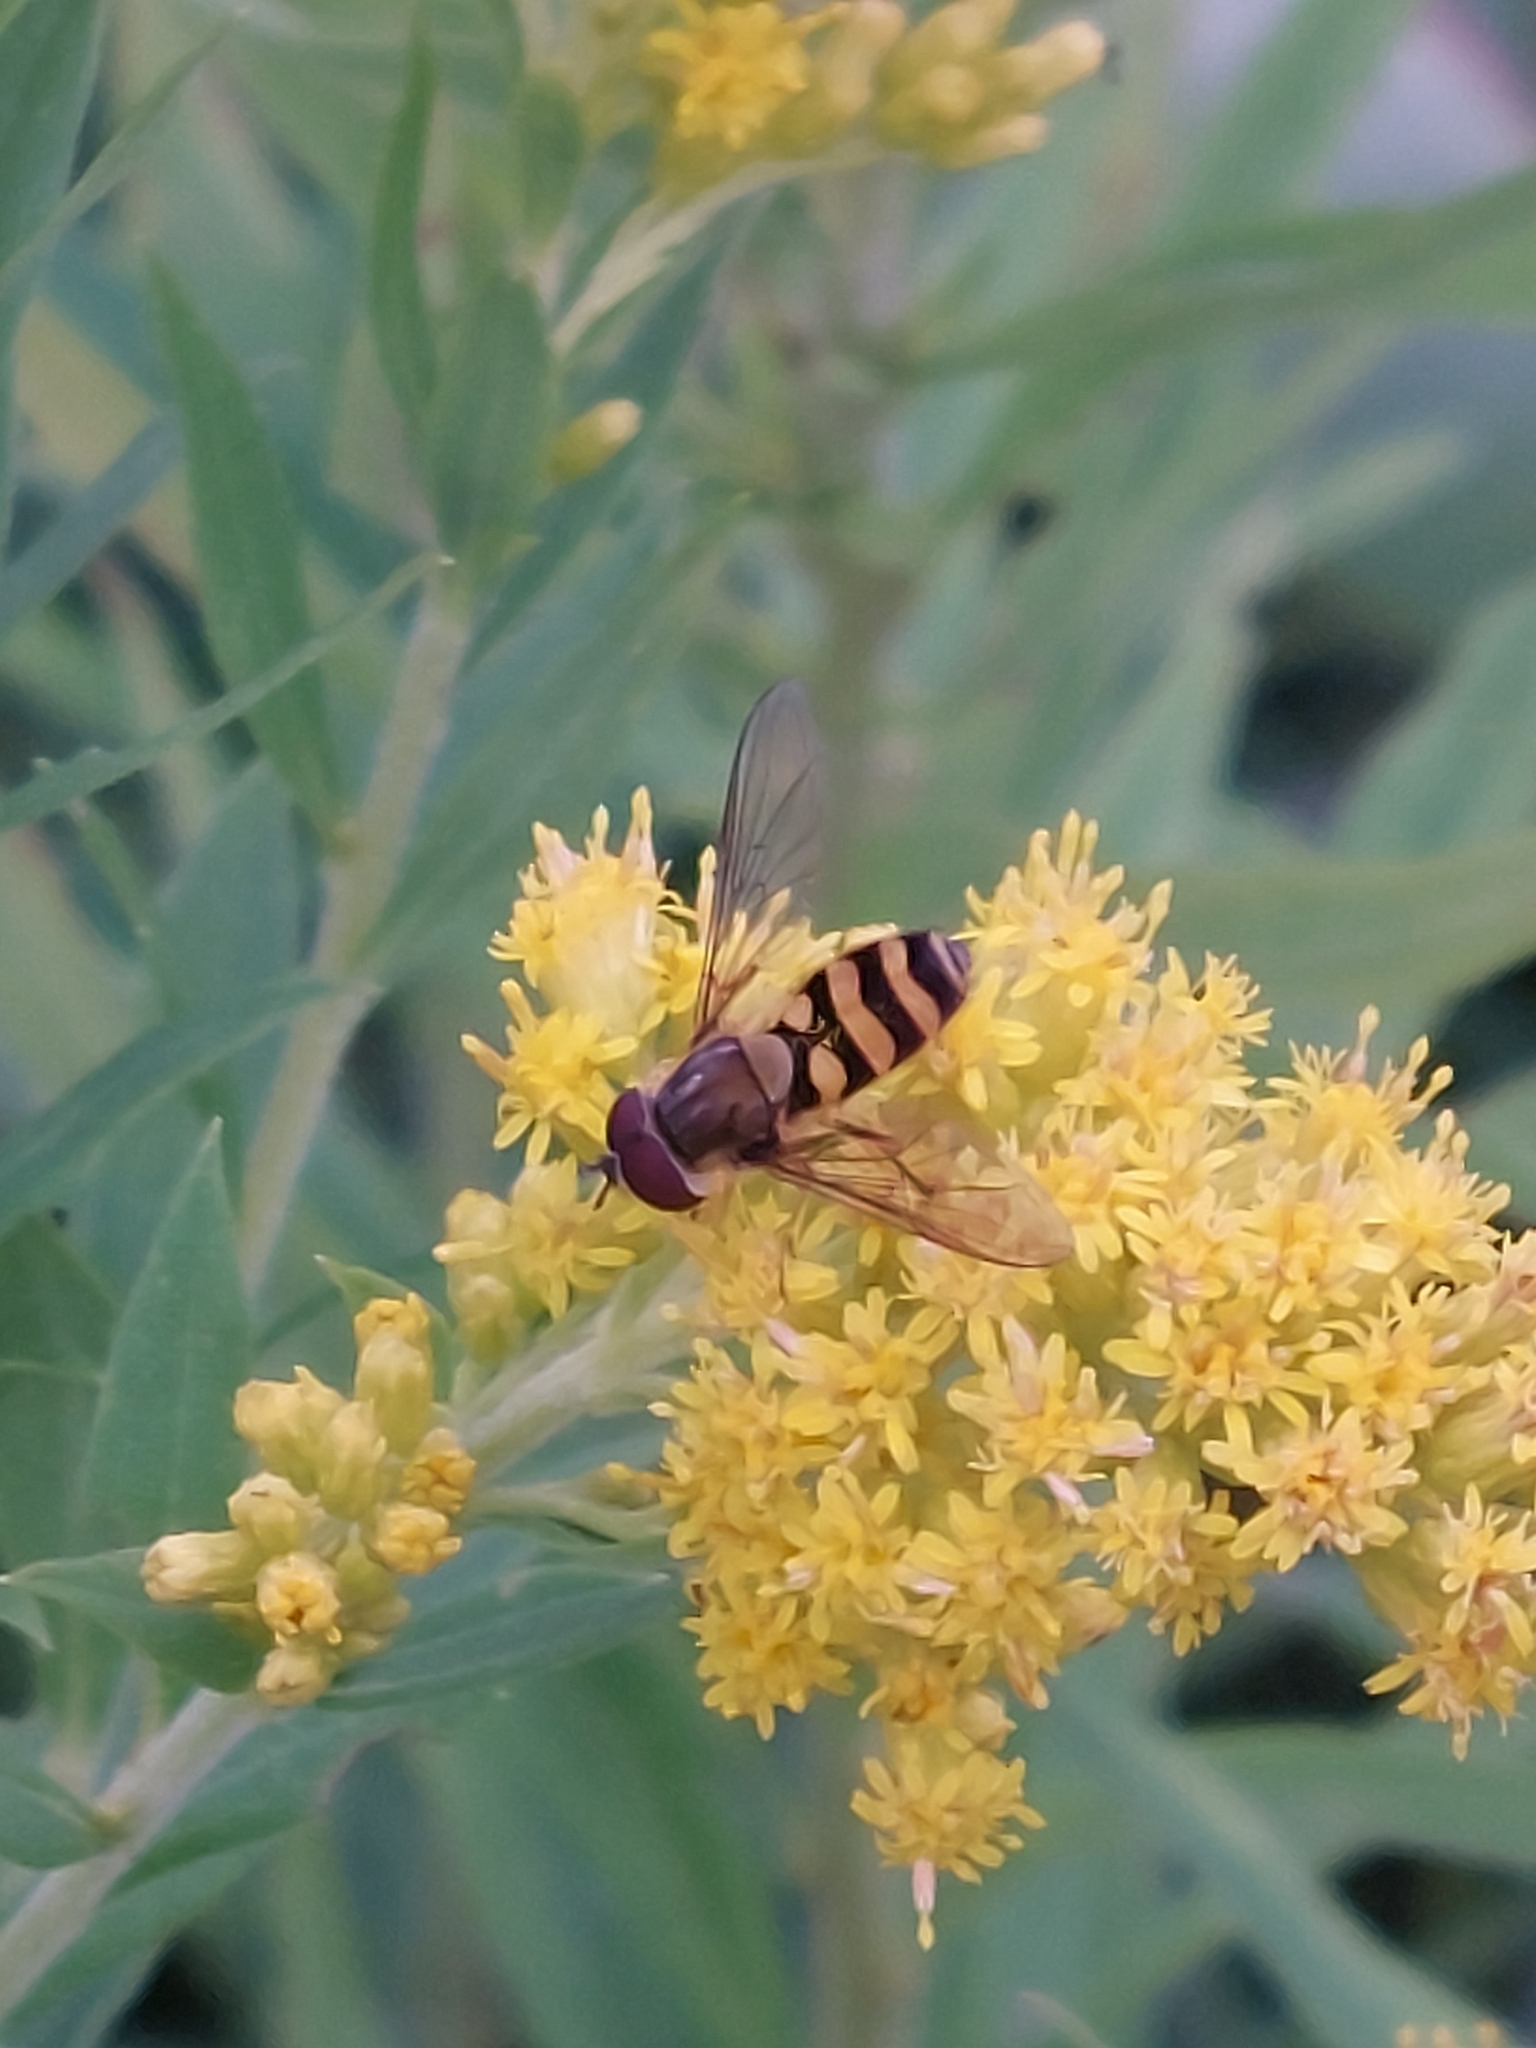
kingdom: Animalia
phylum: Arthropoda
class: Insecta
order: Diptera
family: Syrphidae
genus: Syrphus
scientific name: Syrphus
